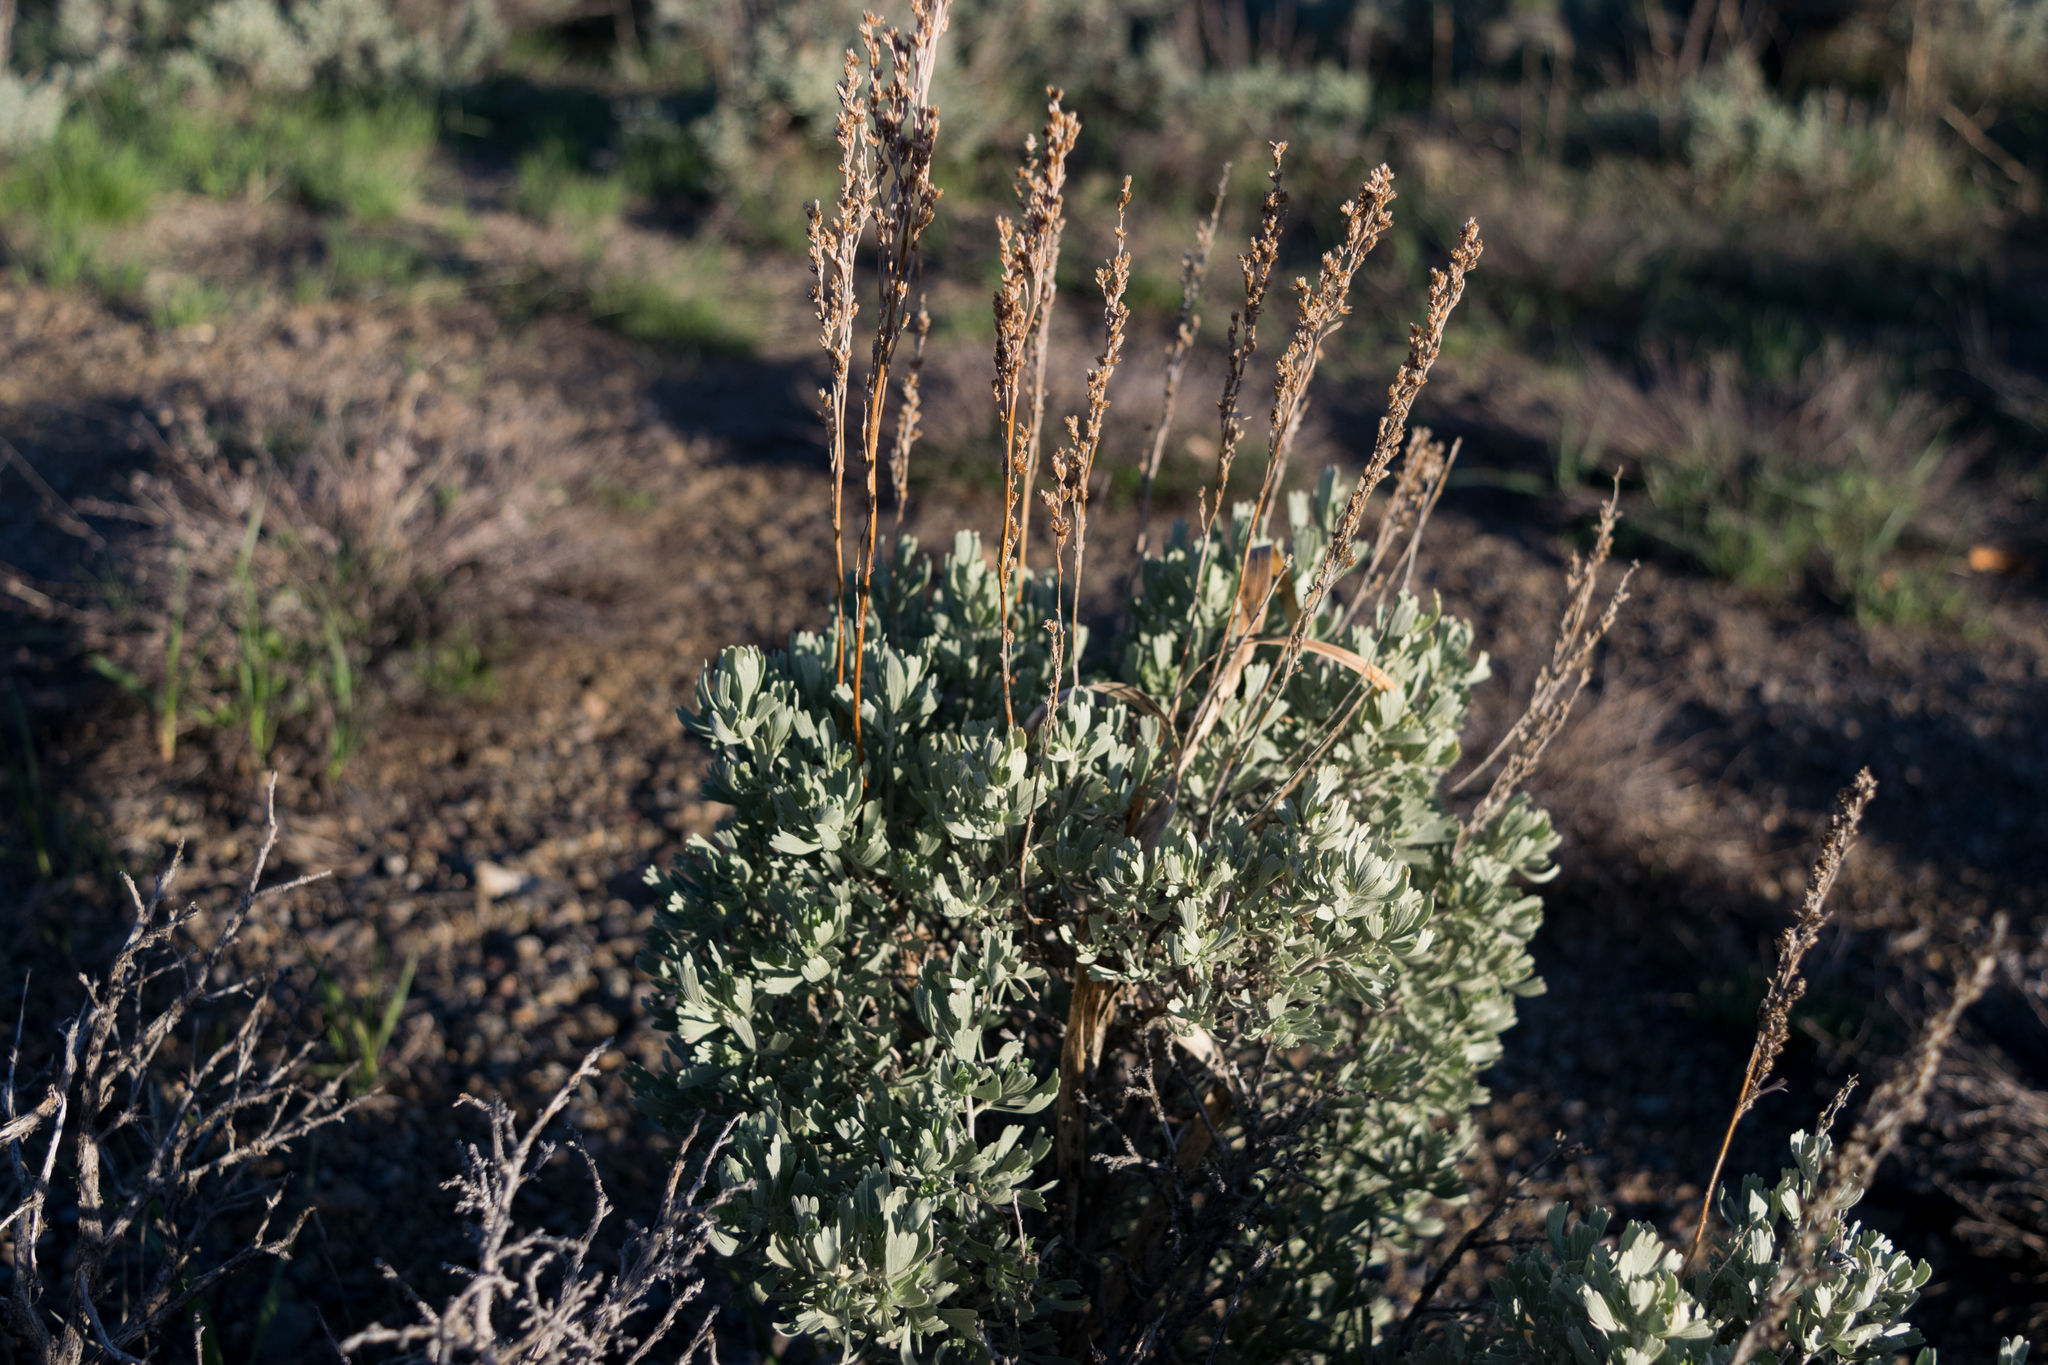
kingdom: Plantae
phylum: Tracheophyta
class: Magnoliopsida
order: Asterales
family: Asteraceae
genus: Artemisia
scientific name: Artemisia tridentata
